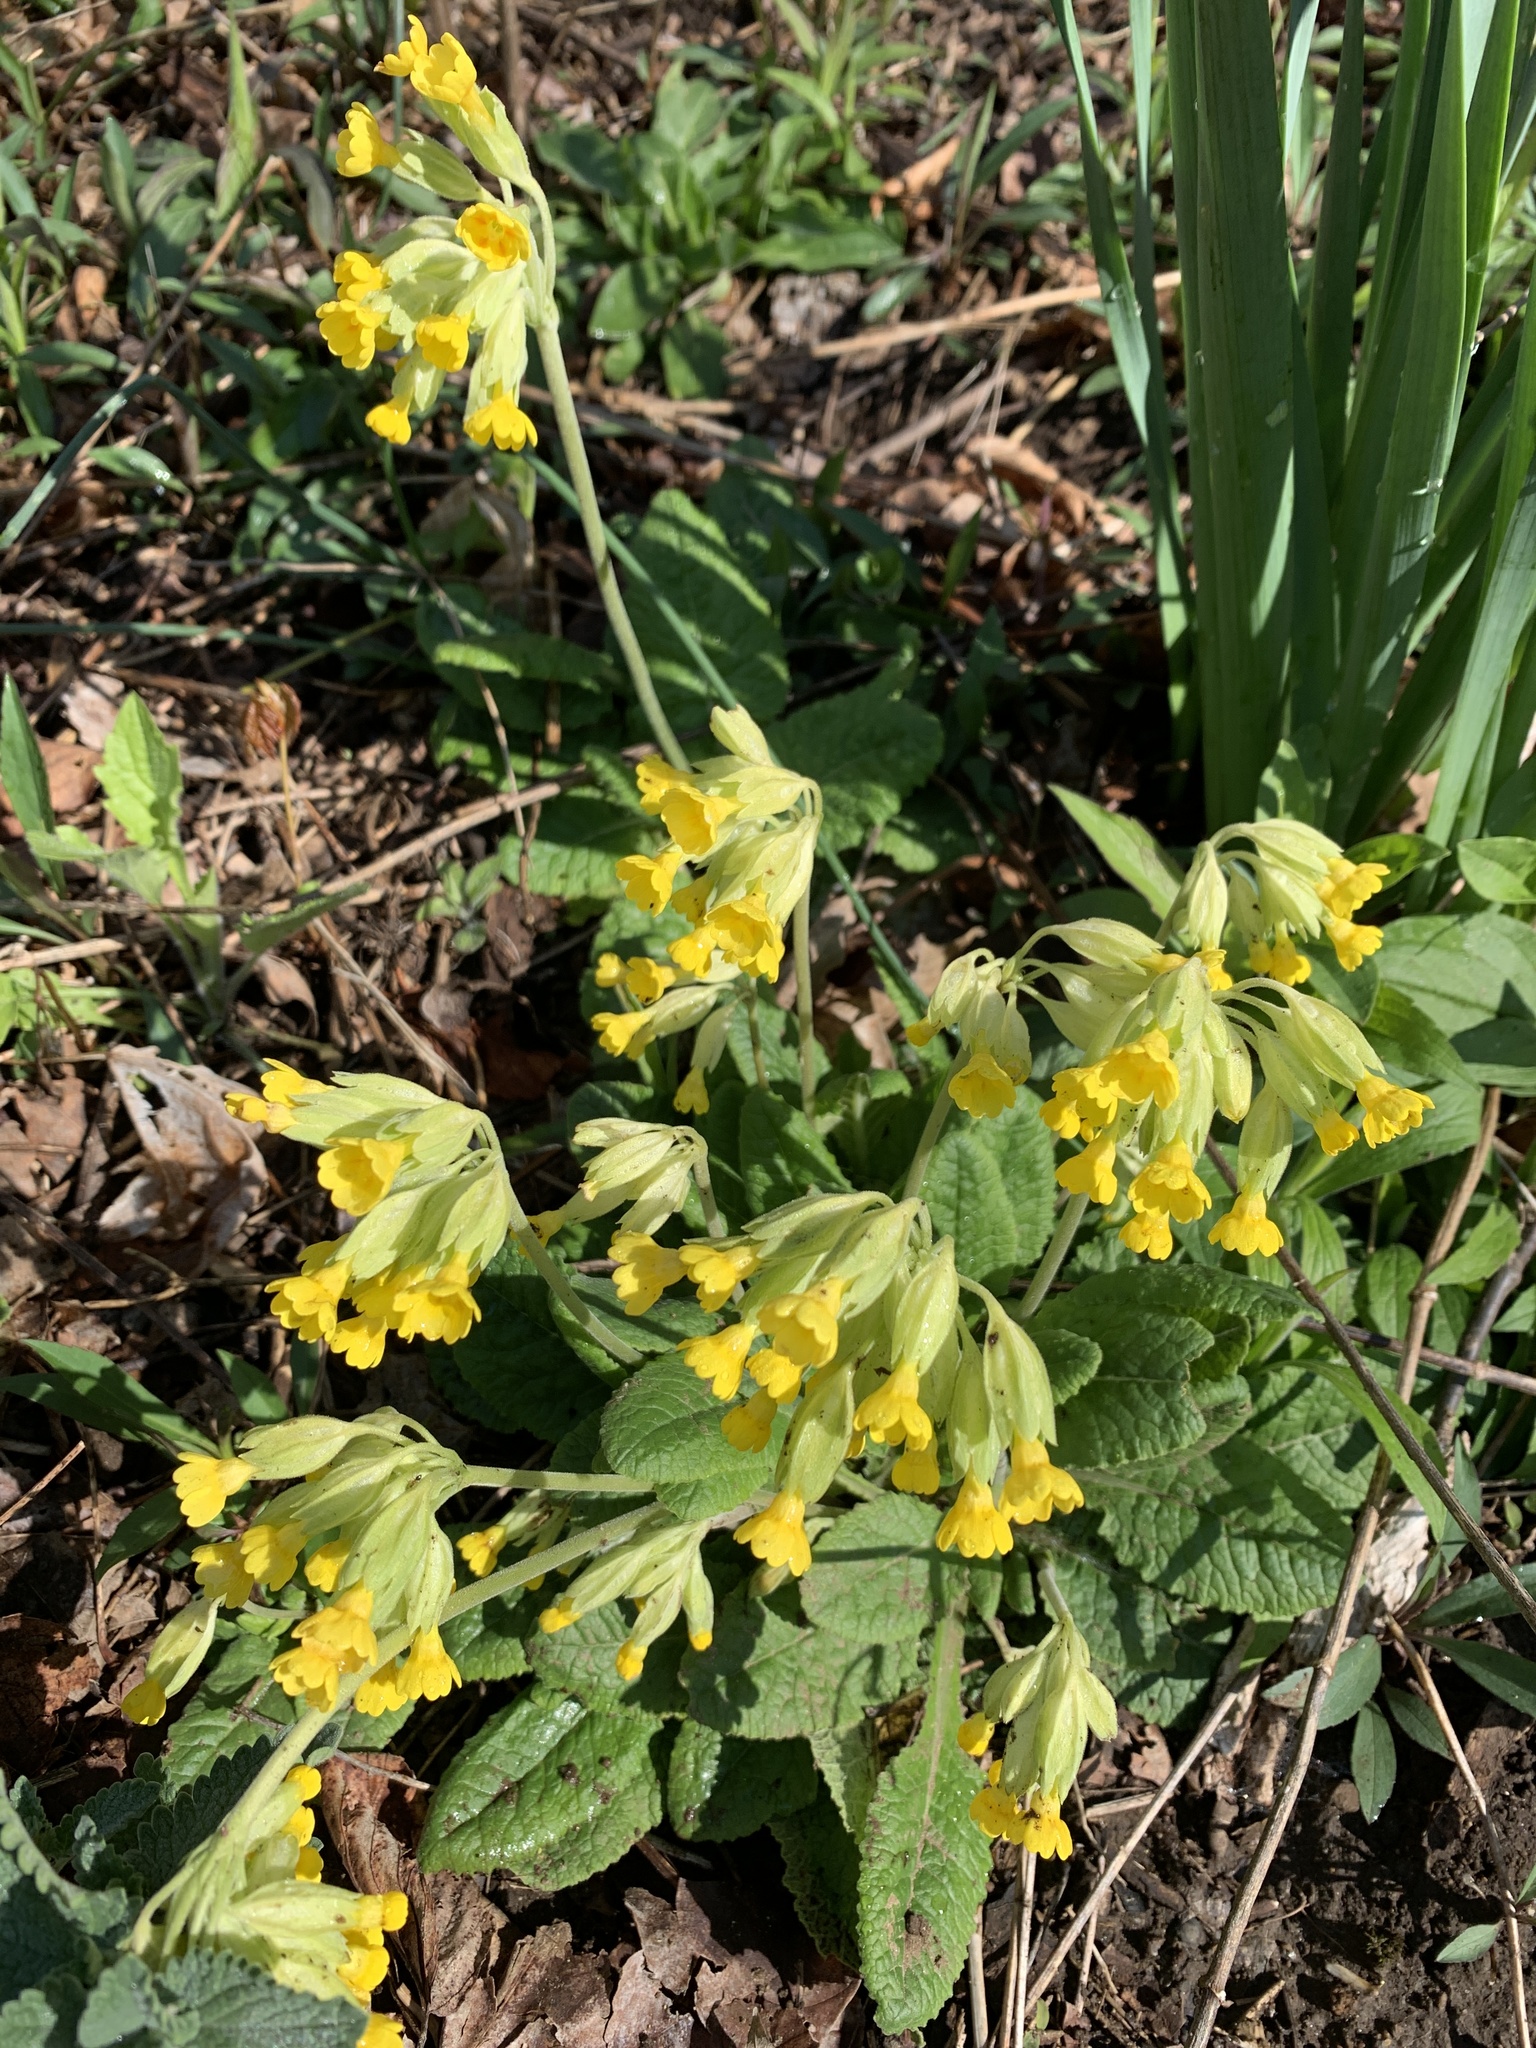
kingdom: Plantae
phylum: Tracheophyta
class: Magnoliopsida
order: Ericales
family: Primulaceae
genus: Primula
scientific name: Primula veris
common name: Cowslip
